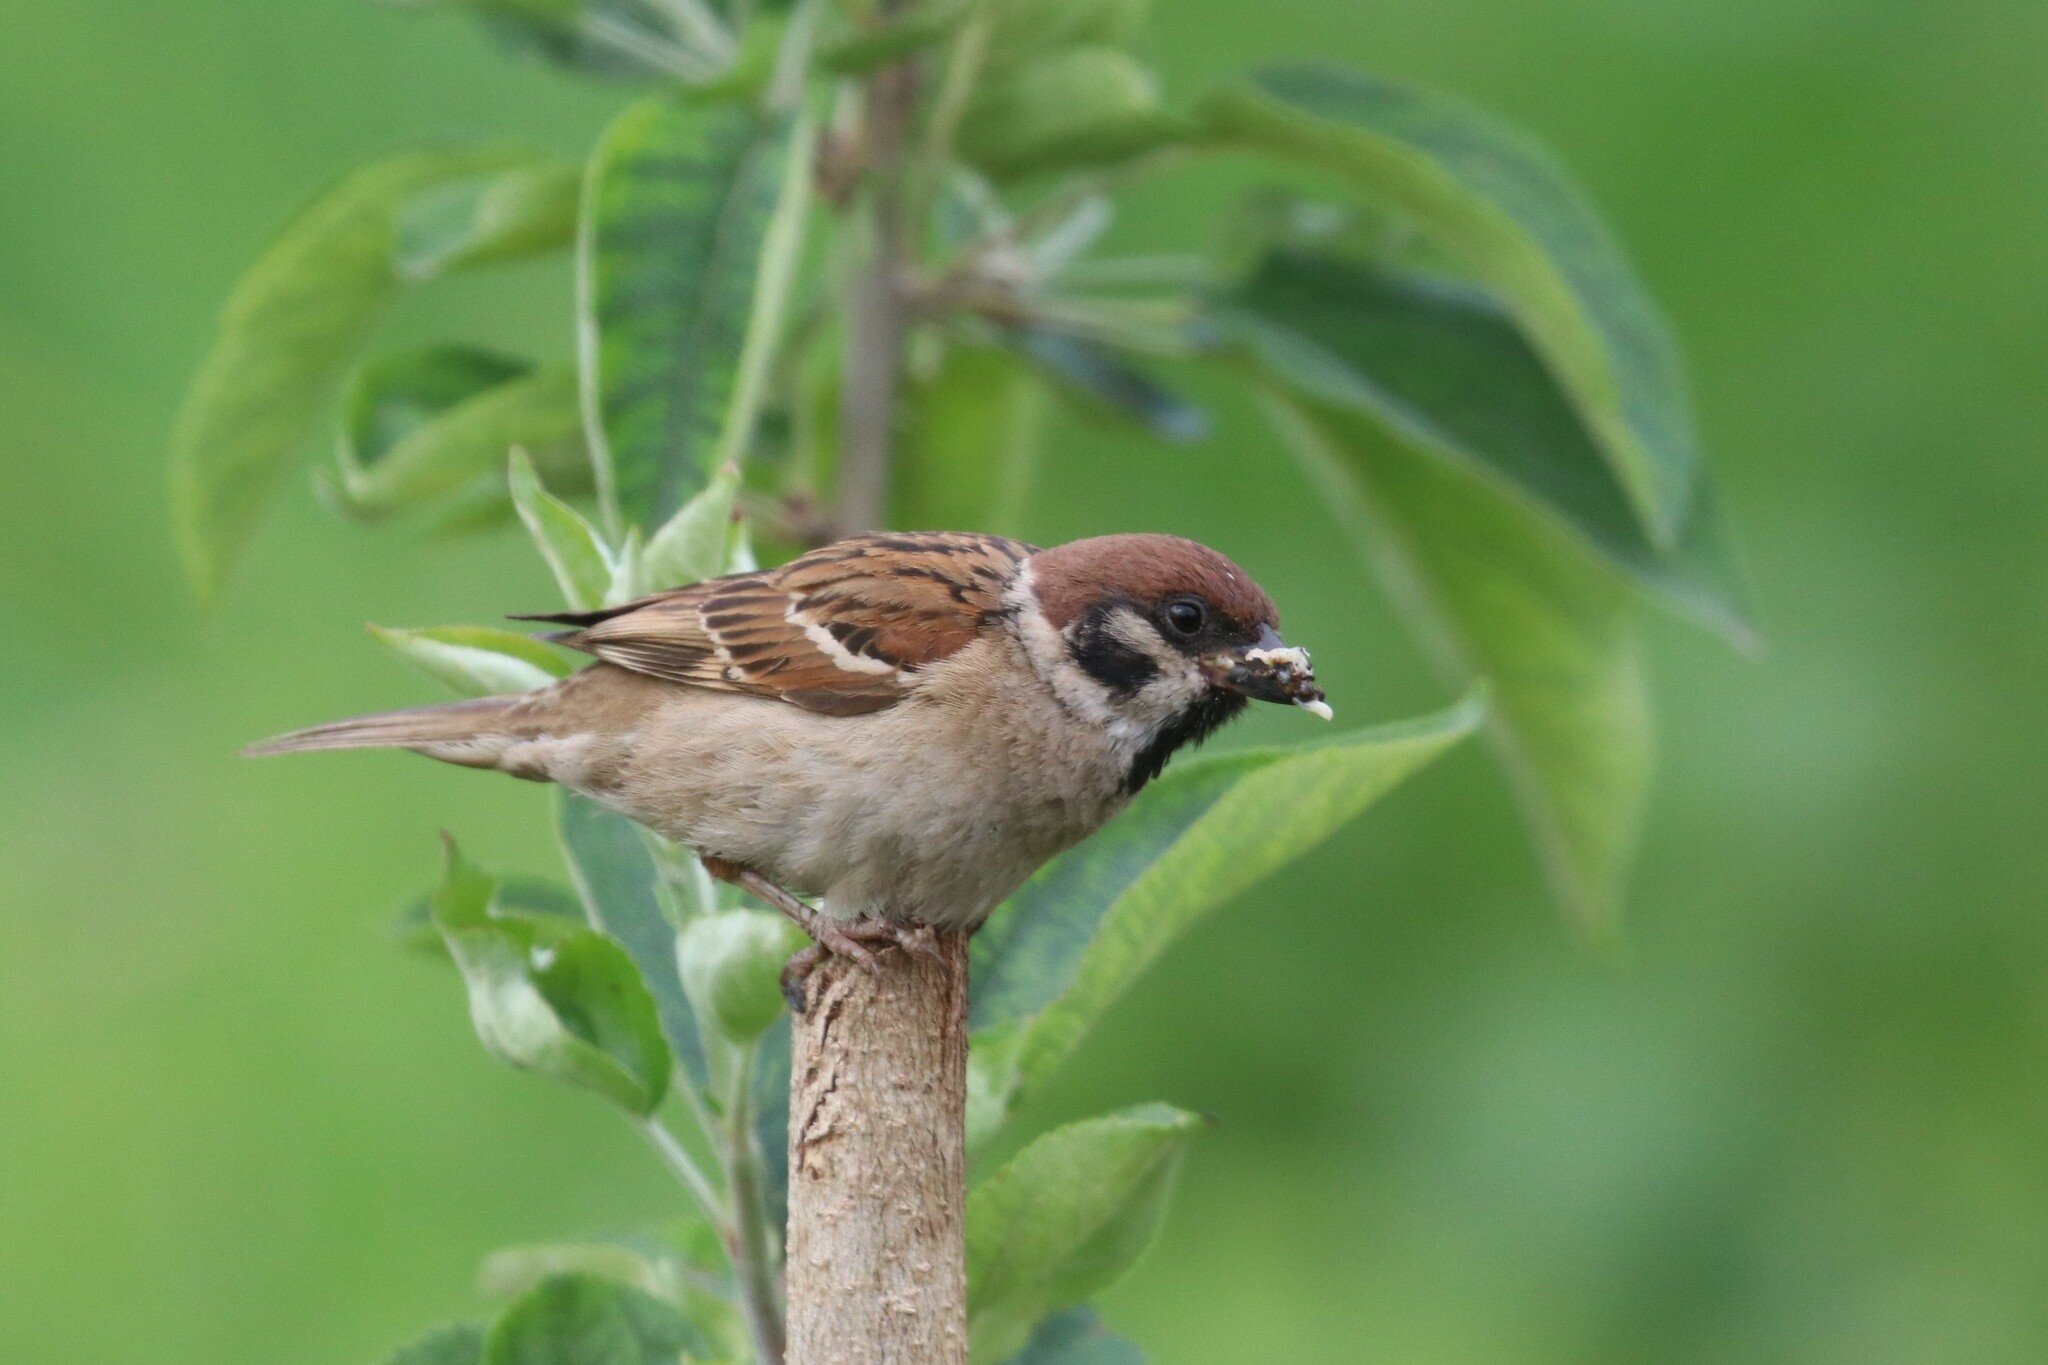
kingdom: Animalia
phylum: Chordata
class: Aves
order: Passeriformes
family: Passeridae
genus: Passer
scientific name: Passer montanus
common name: Eurasian tree sparrow
